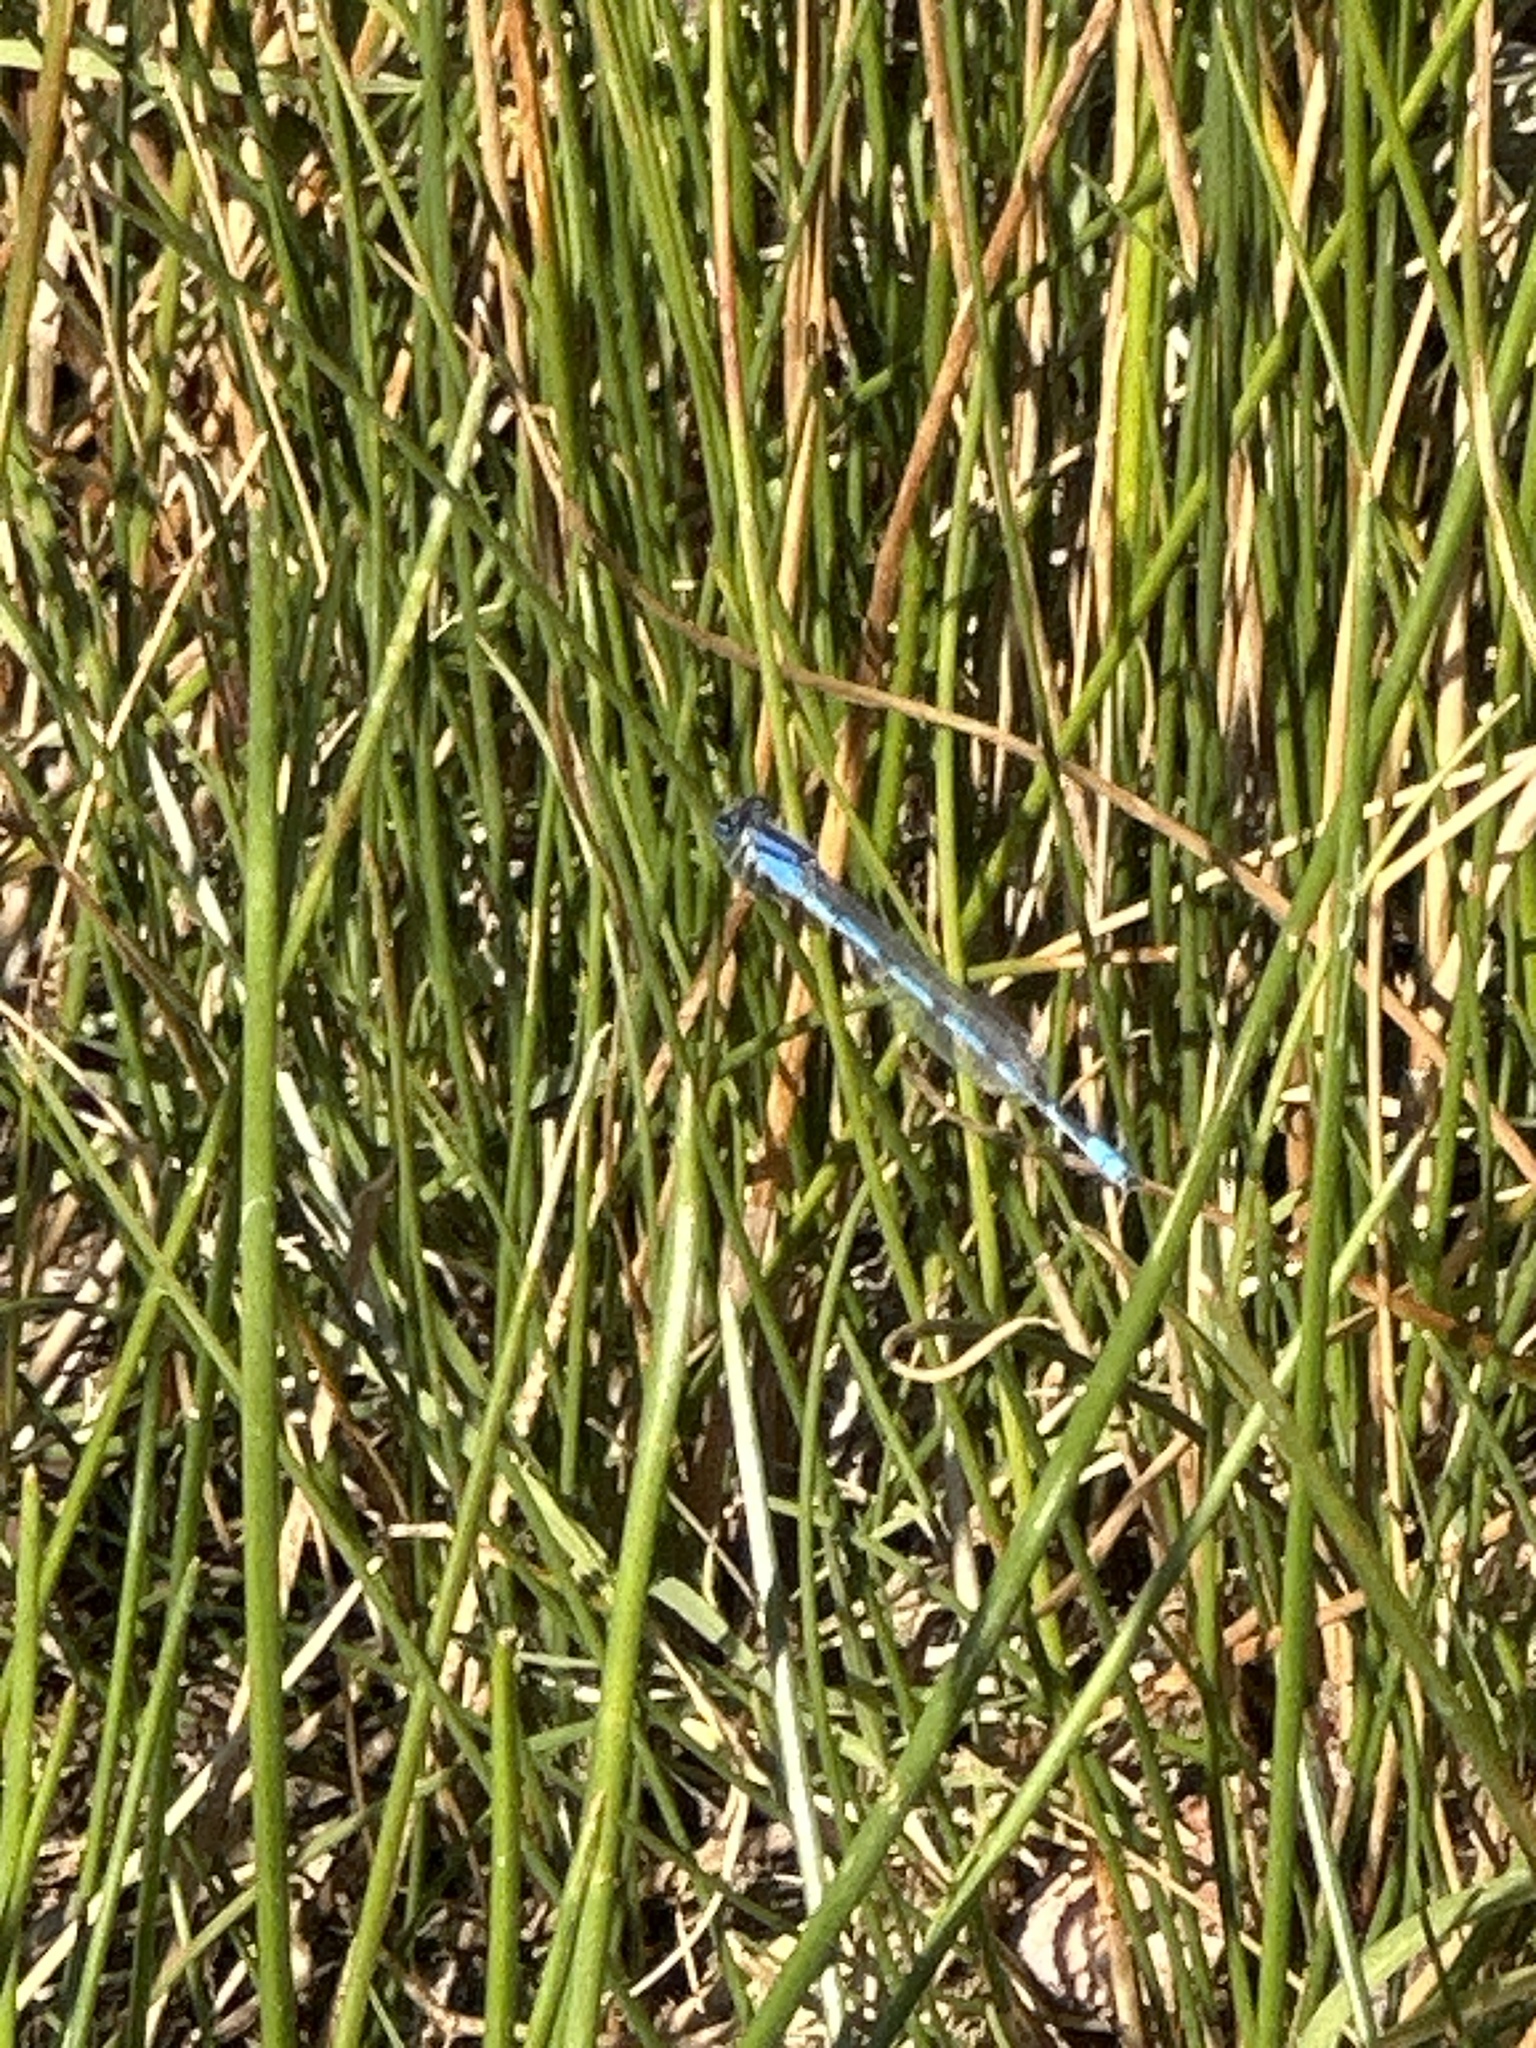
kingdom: Animalia
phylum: Arthropoda
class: Insecta
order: Odonata
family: Coenagrionidae
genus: Enallagma
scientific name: Enallagma civile
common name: Damselfly
